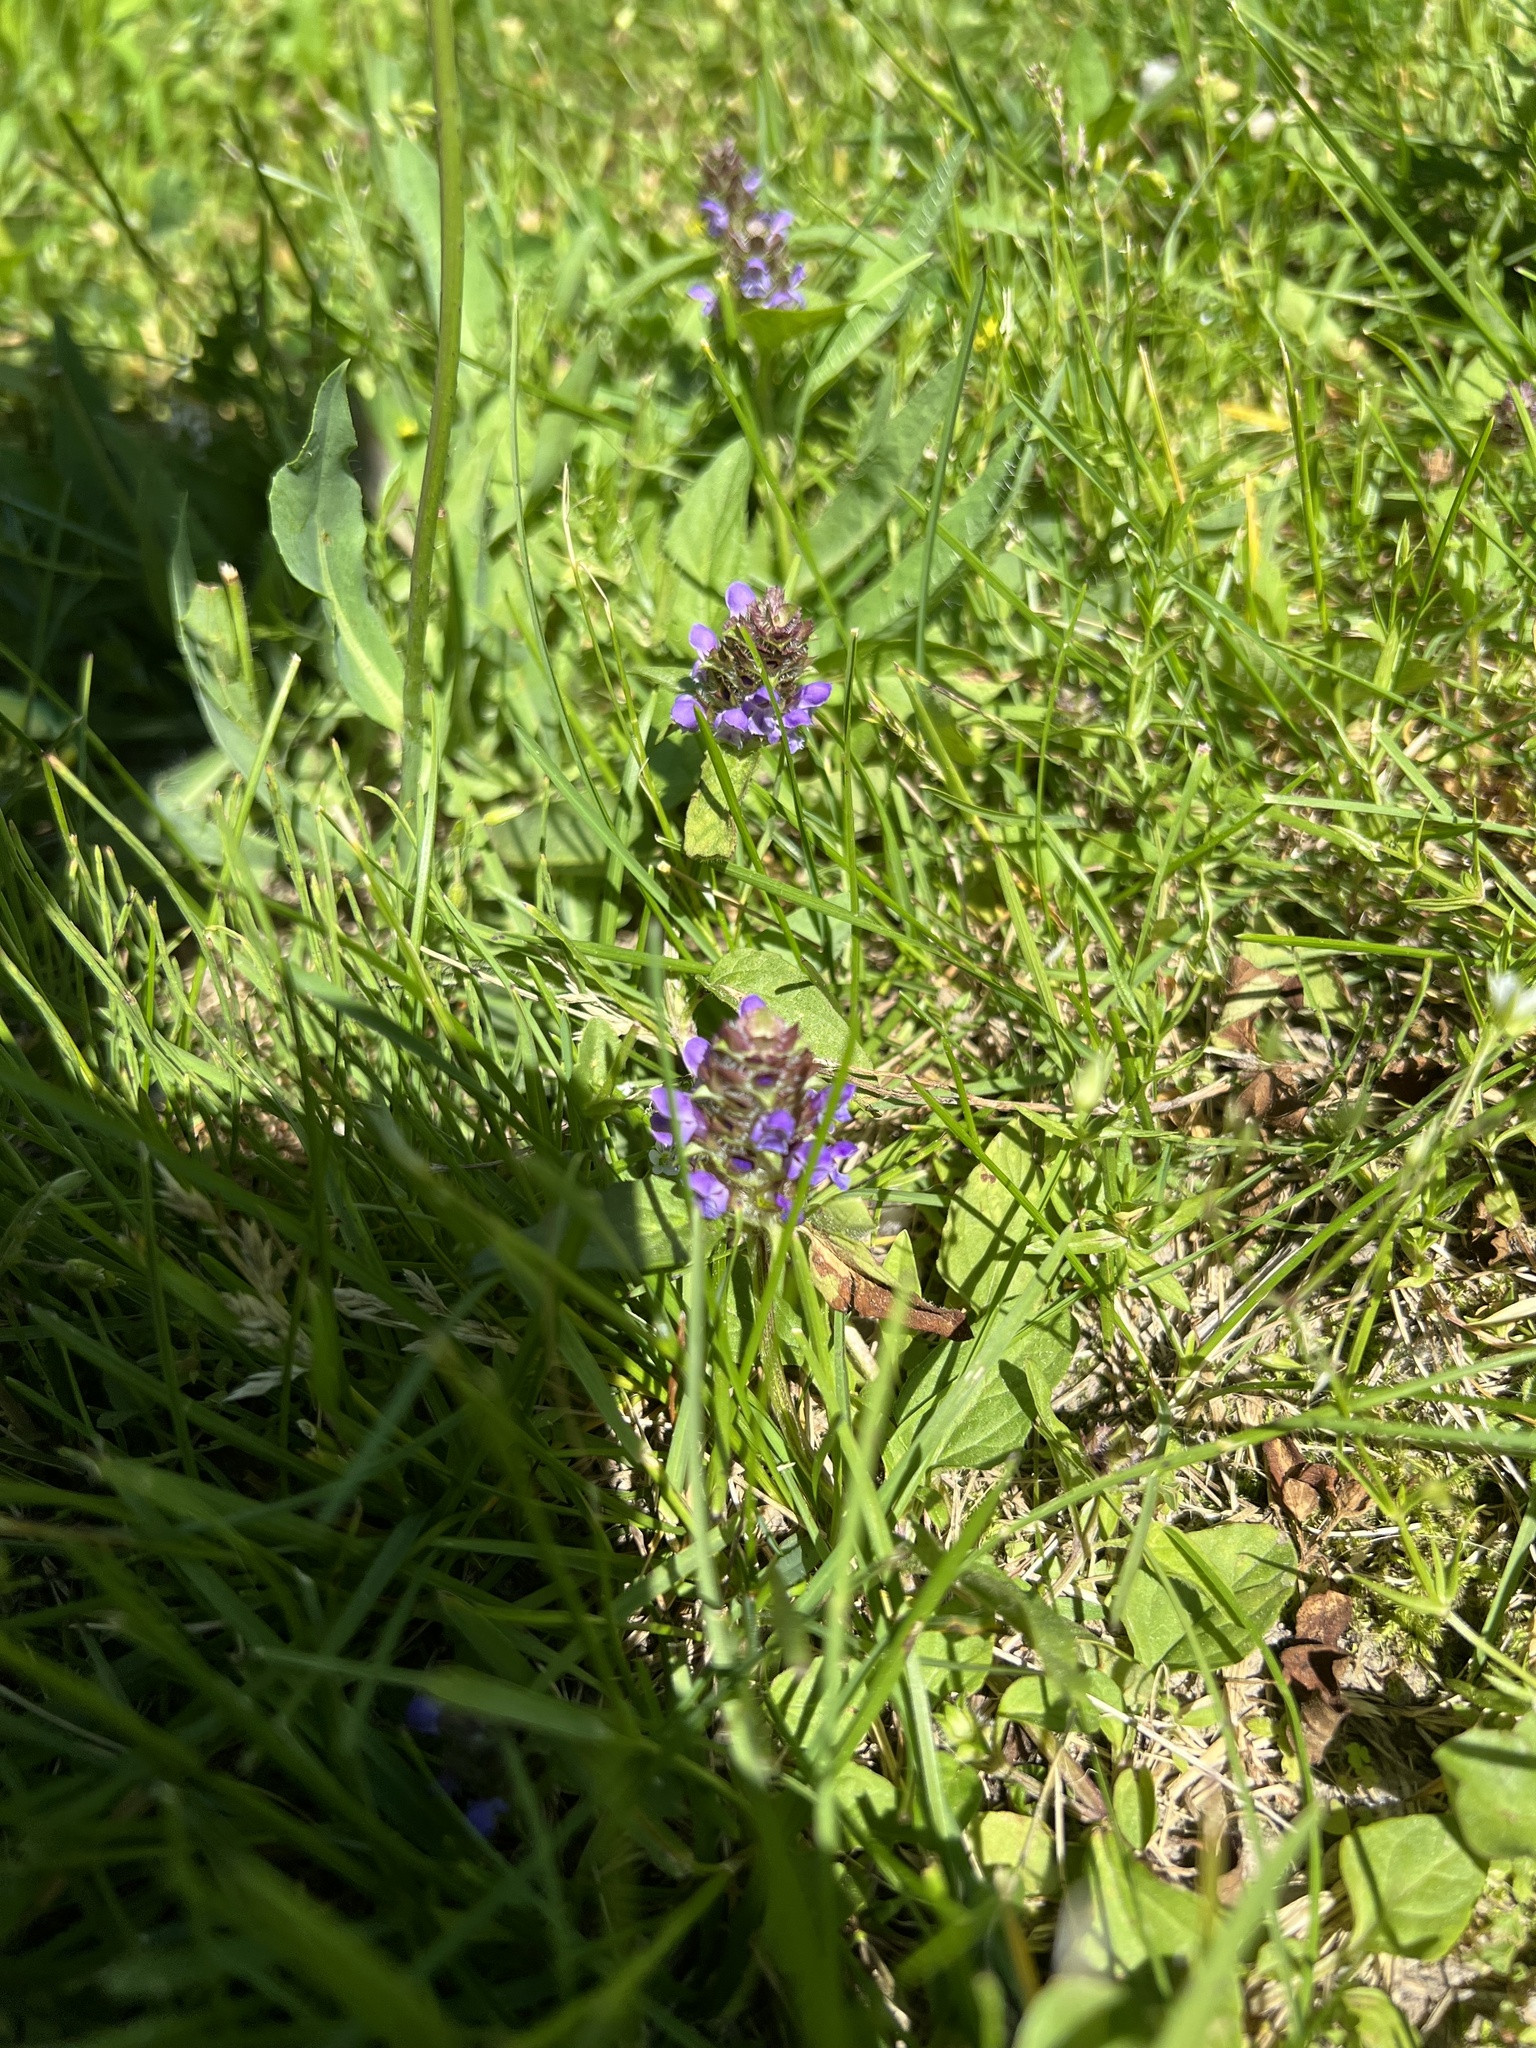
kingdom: Plantae
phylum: Tracheophyta
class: Magnoliopsida
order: Lamiales
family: Lamiaceae
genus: Prunella
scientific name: Prunella vulgaris
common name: Heal-all
